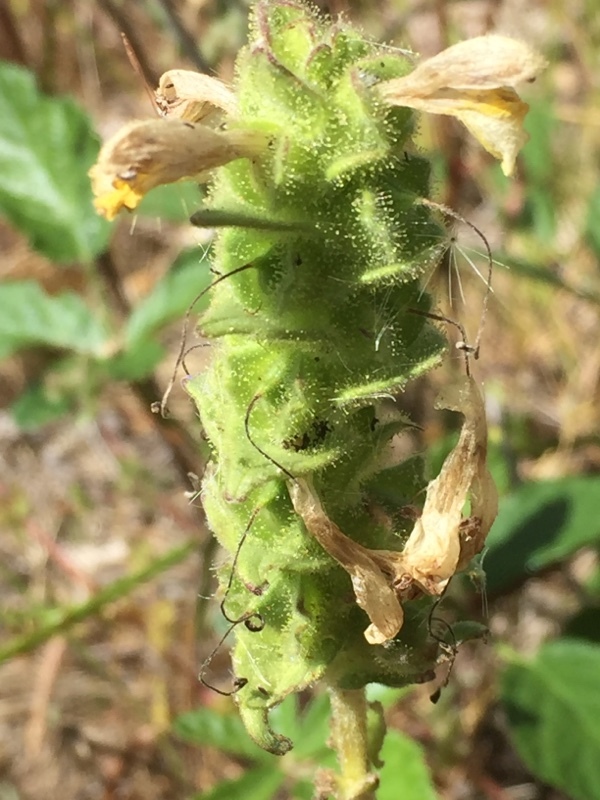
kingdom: Plantae
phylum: Tracheophyta
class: Magnoliopsida
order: Lamiales
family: Orobanchaceae
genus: Bellardia
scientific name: Bellardia trixago
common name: Mediterranean lineseed
